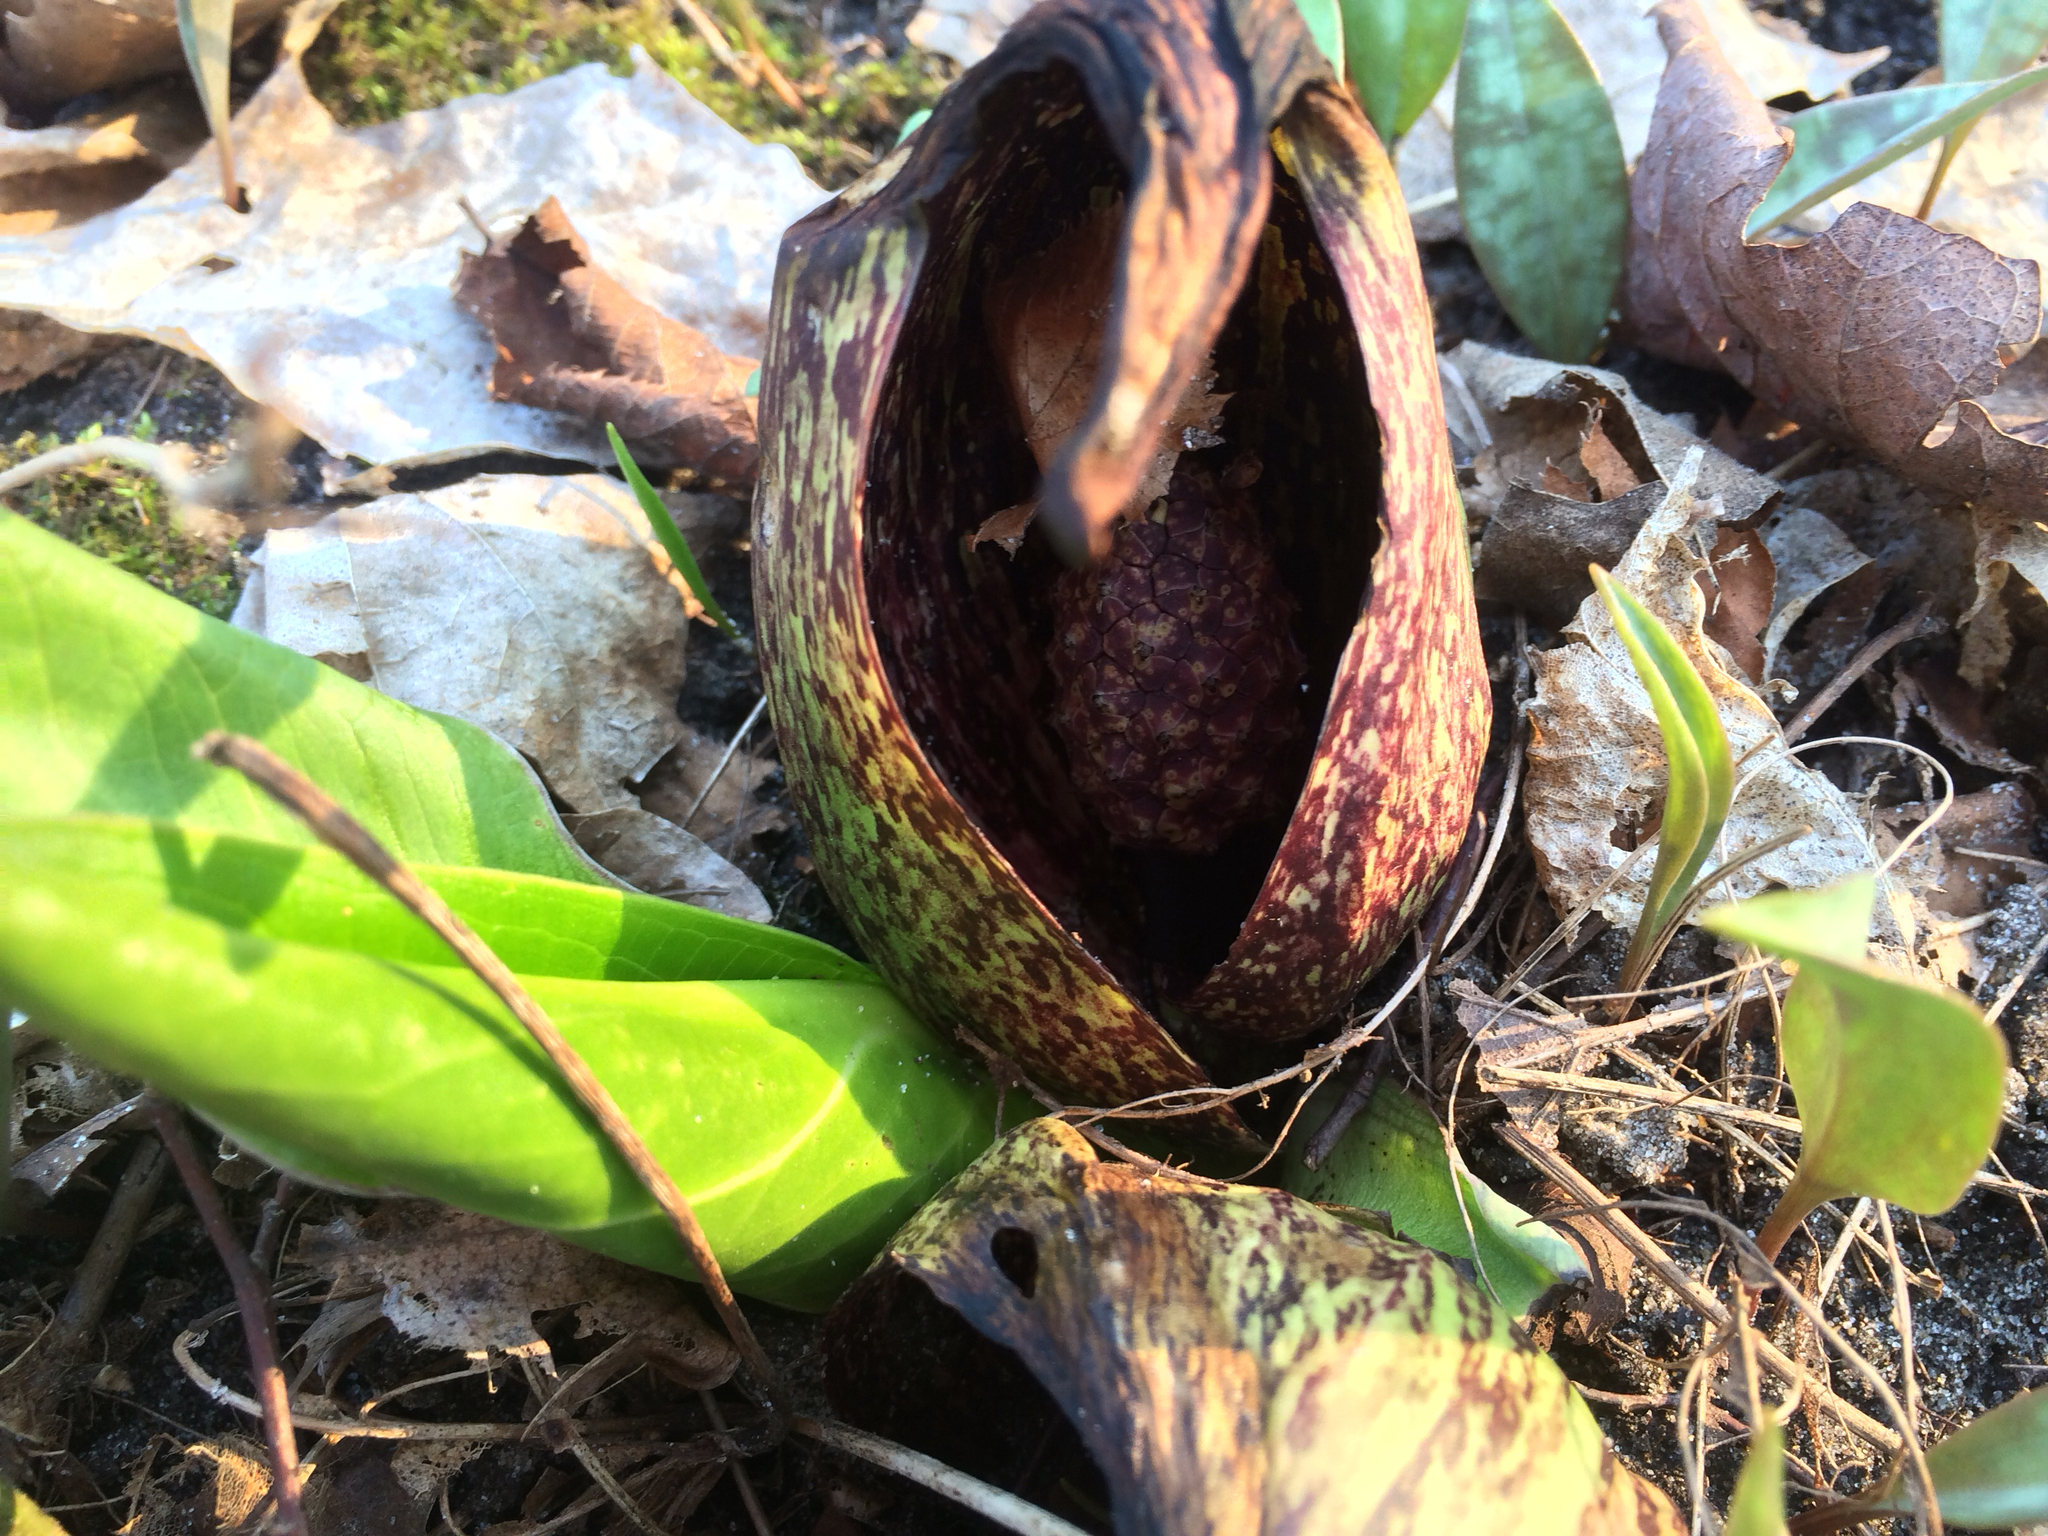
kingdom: Plantae
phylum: Tracheophyta
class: Liliopsida
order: Alismatales
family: Araceae
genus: Symplocarpus
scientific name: Symplocarpus foetidus
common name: Eastern skunk cabbage
